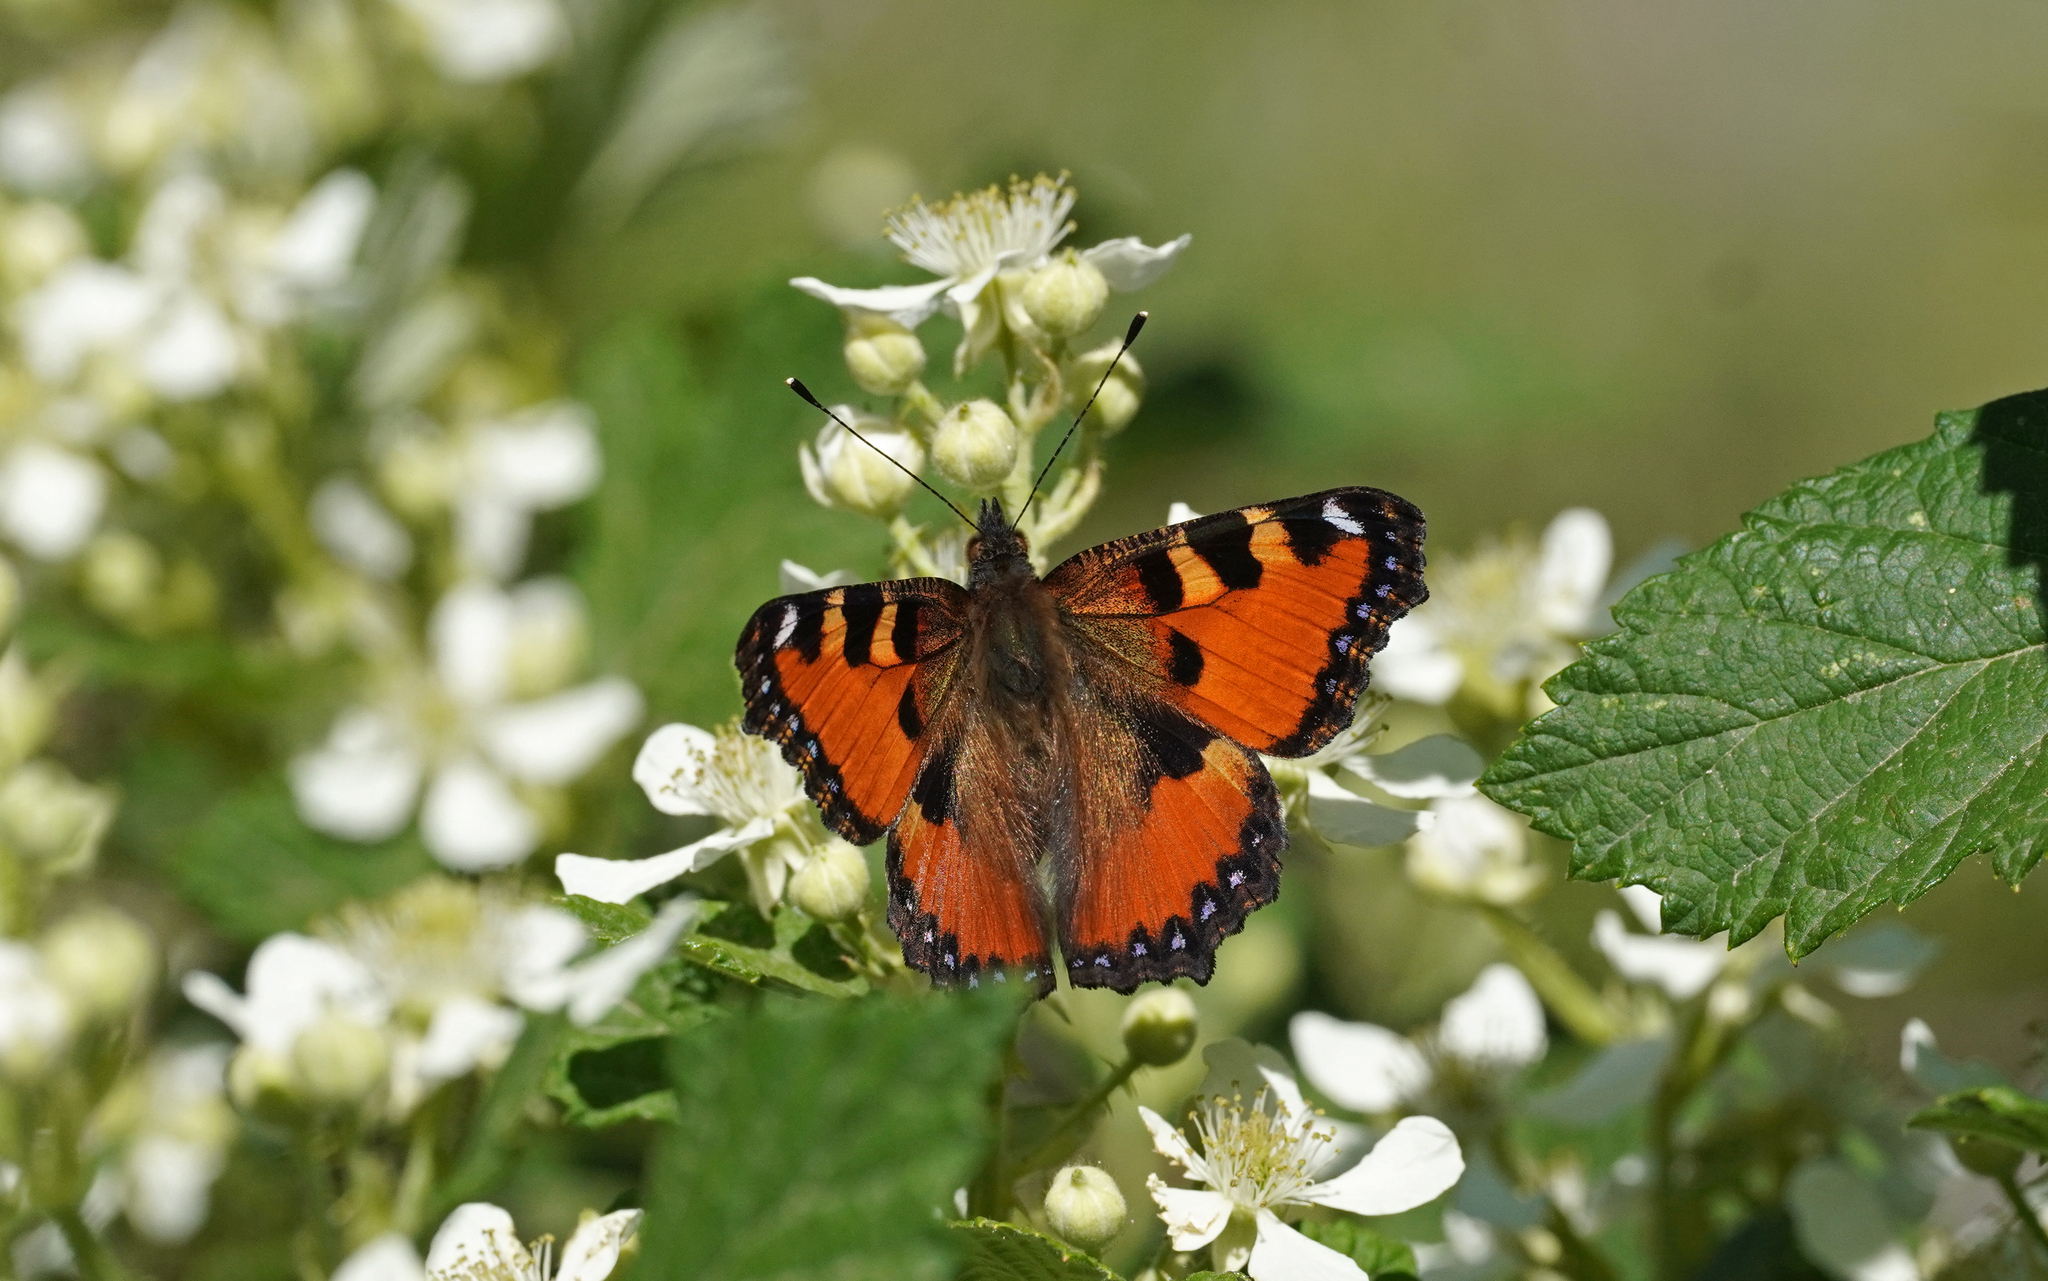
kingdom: Animalia
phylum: Arthropoda
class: Insecta
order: Lepidoptera
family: Nymphalidae
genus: Aglais
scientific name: Aglais ichnusa
